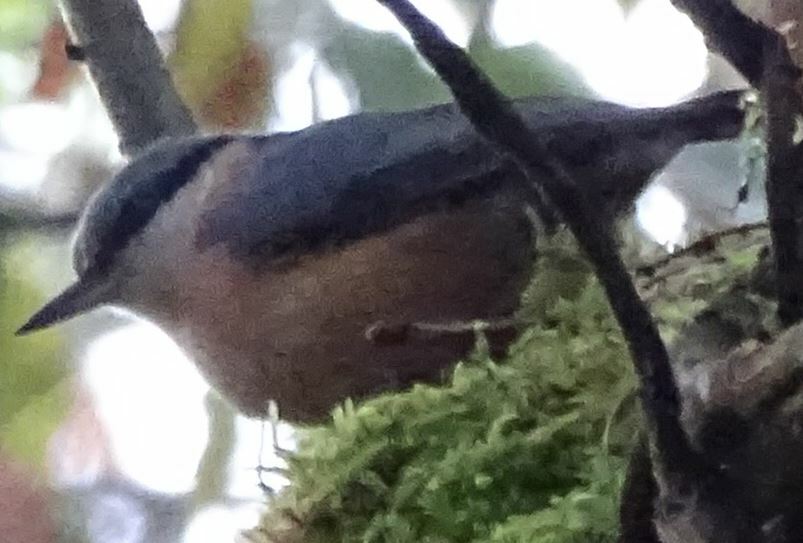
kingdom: Animalia
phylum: Chordata
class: Aves
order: Passeriformes
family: Sittidae
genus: Sitta
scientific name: Sitta europaea
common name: Eurasian nuthatch
